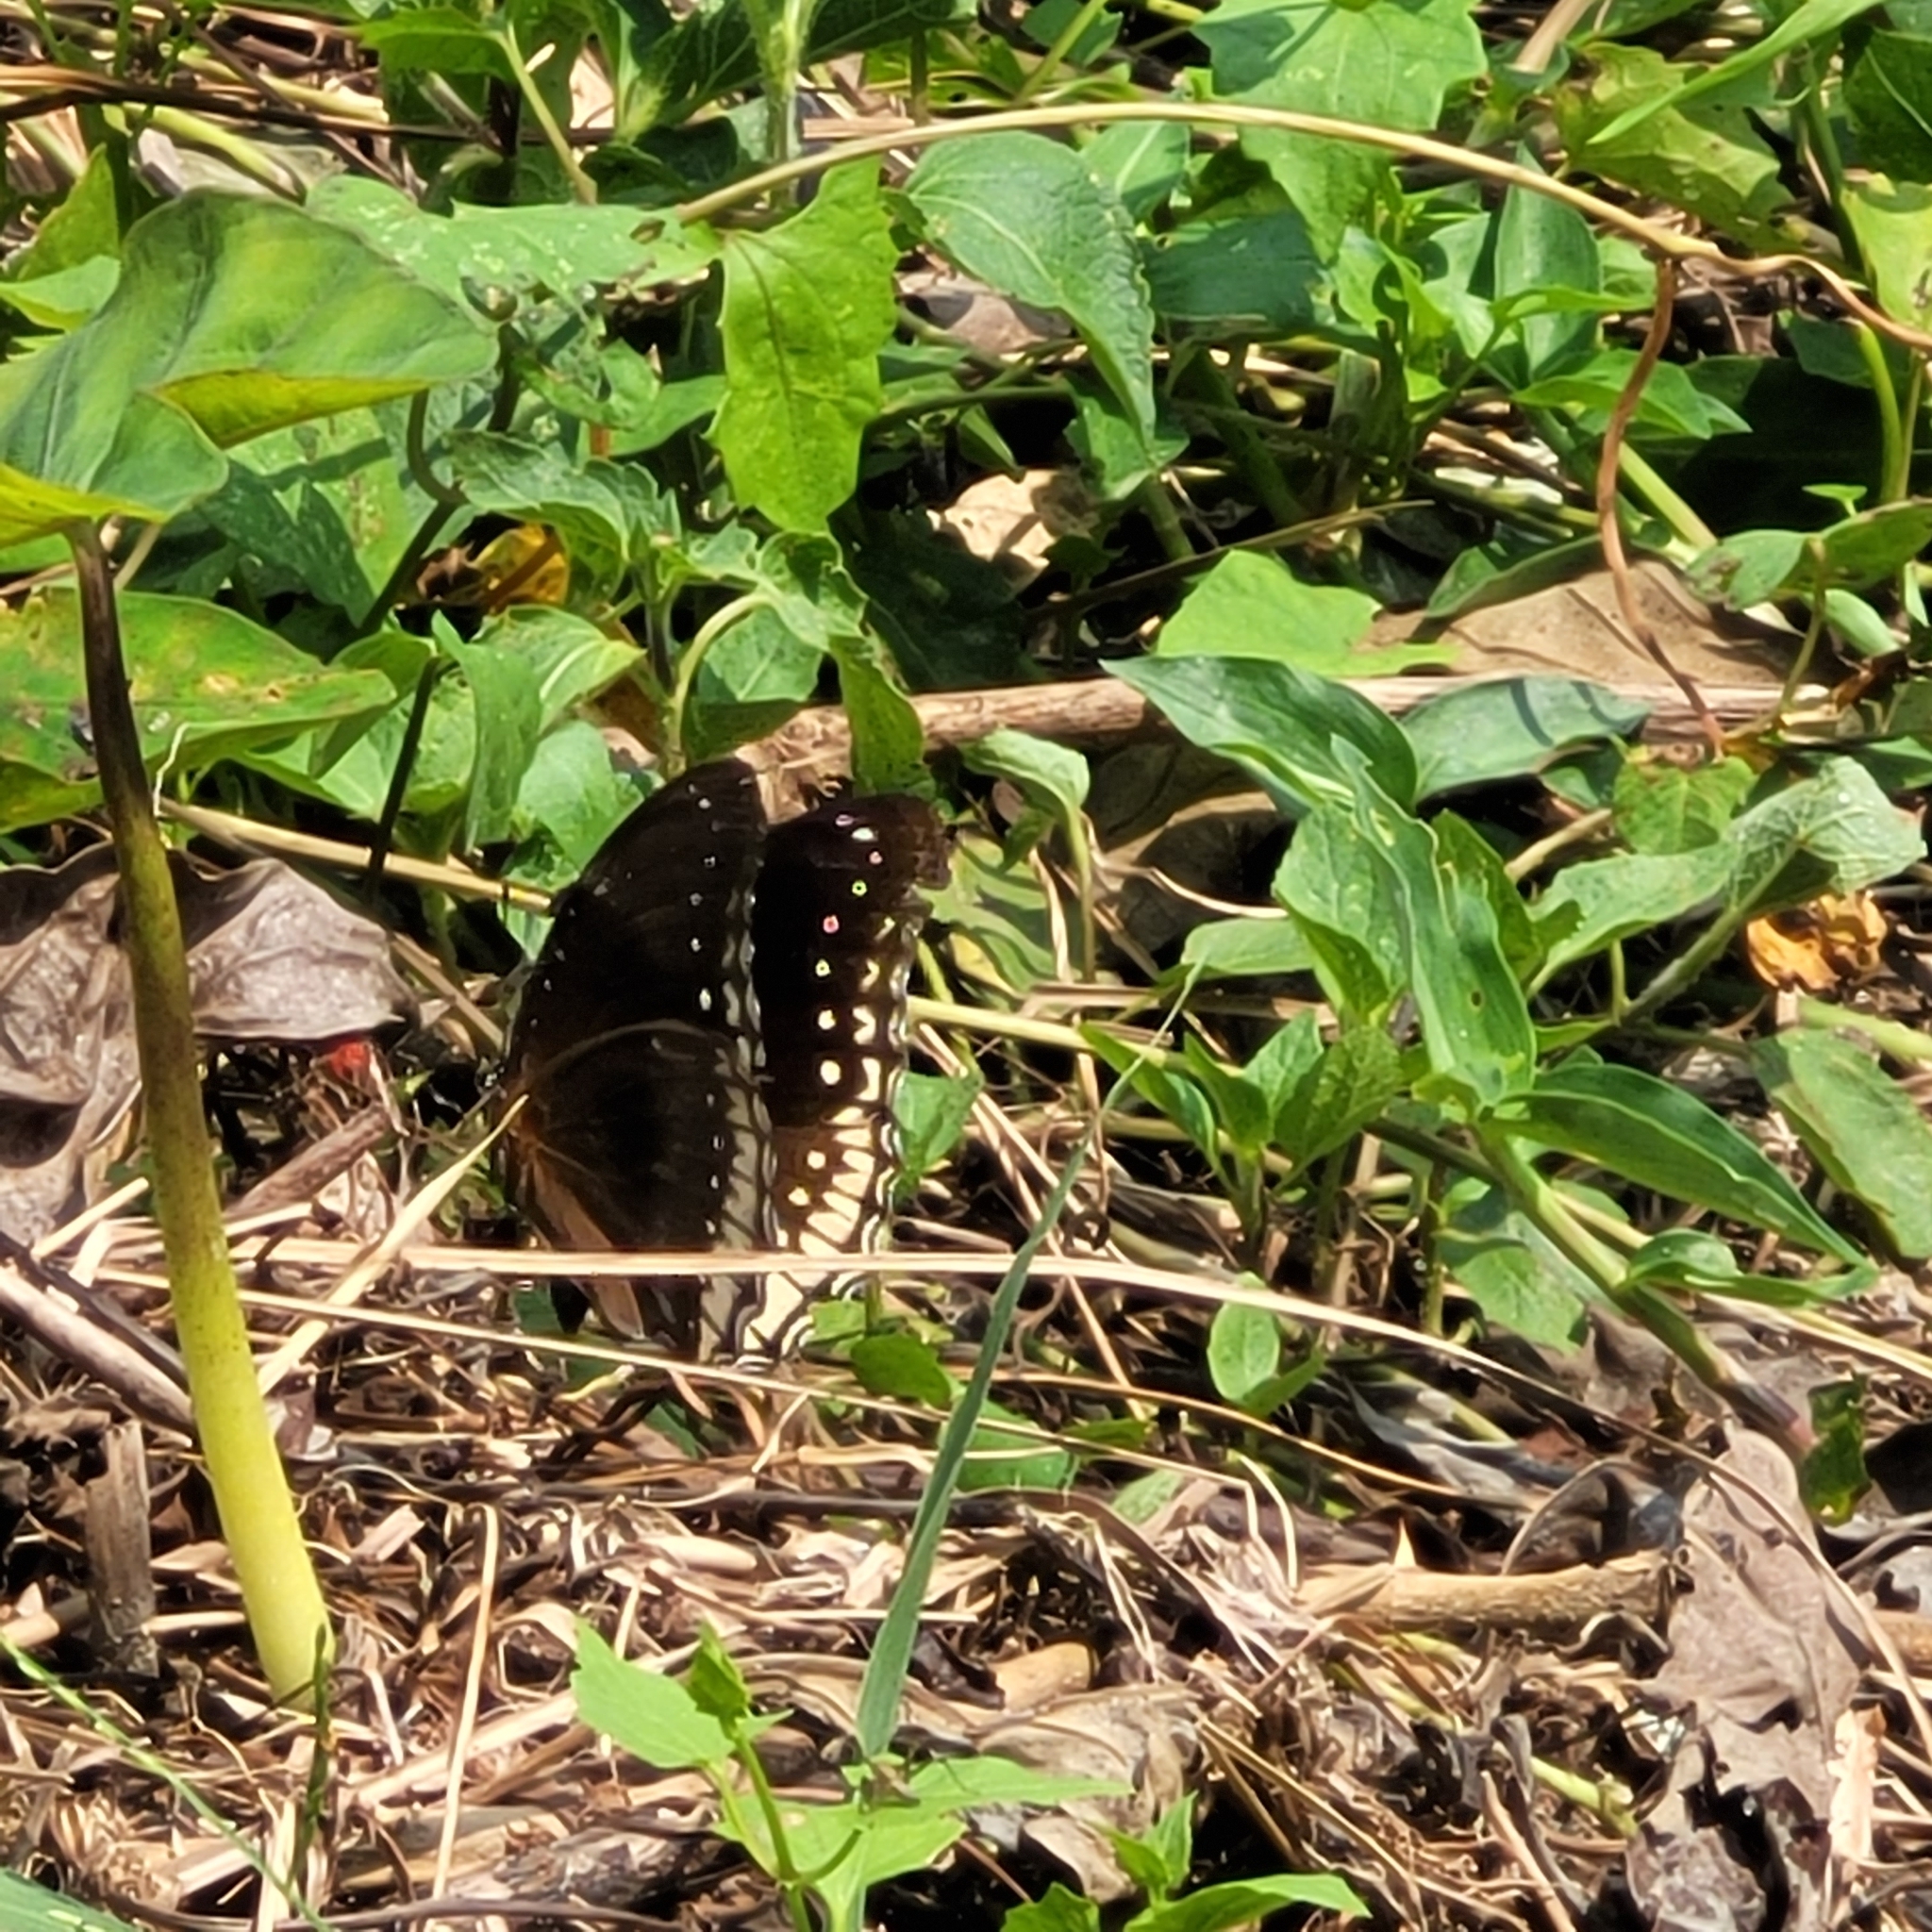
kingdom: Animalia
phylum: Arthropoda
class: Insecta
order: Lepidoptera
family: Nymphalidae
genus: Hypolimnas
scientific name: Hypolimnas bolina
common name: Great eggfly
